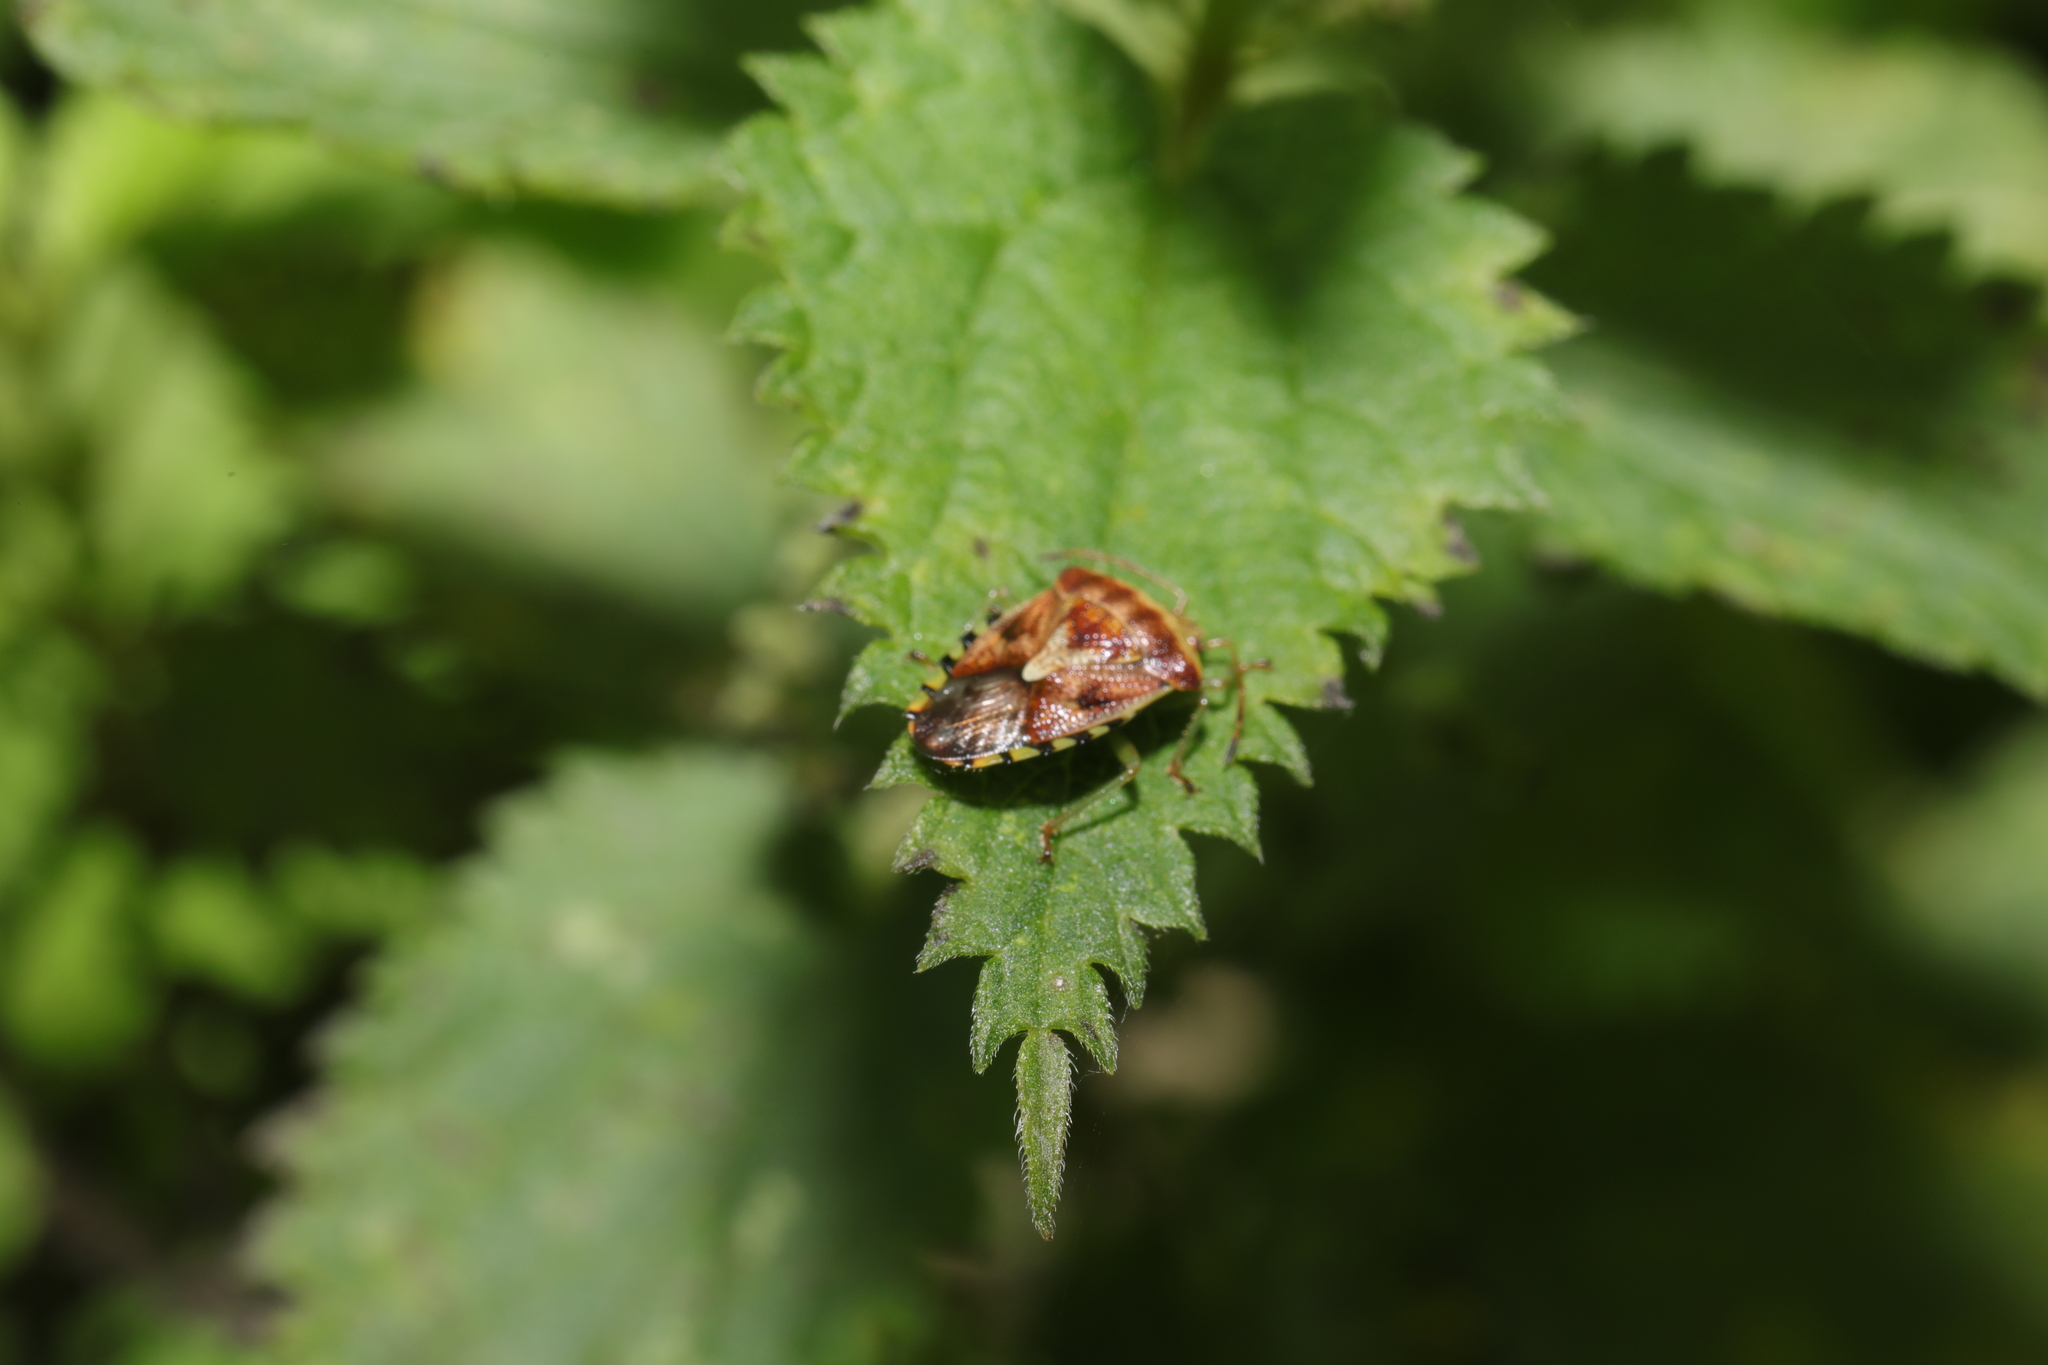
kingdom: Animalia
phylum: Arthropoda
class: Insecta
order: Hemiptera
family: Acanthosomatidae
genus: Elasmucha
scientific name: Elasmucha grisea
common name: Parent bug
